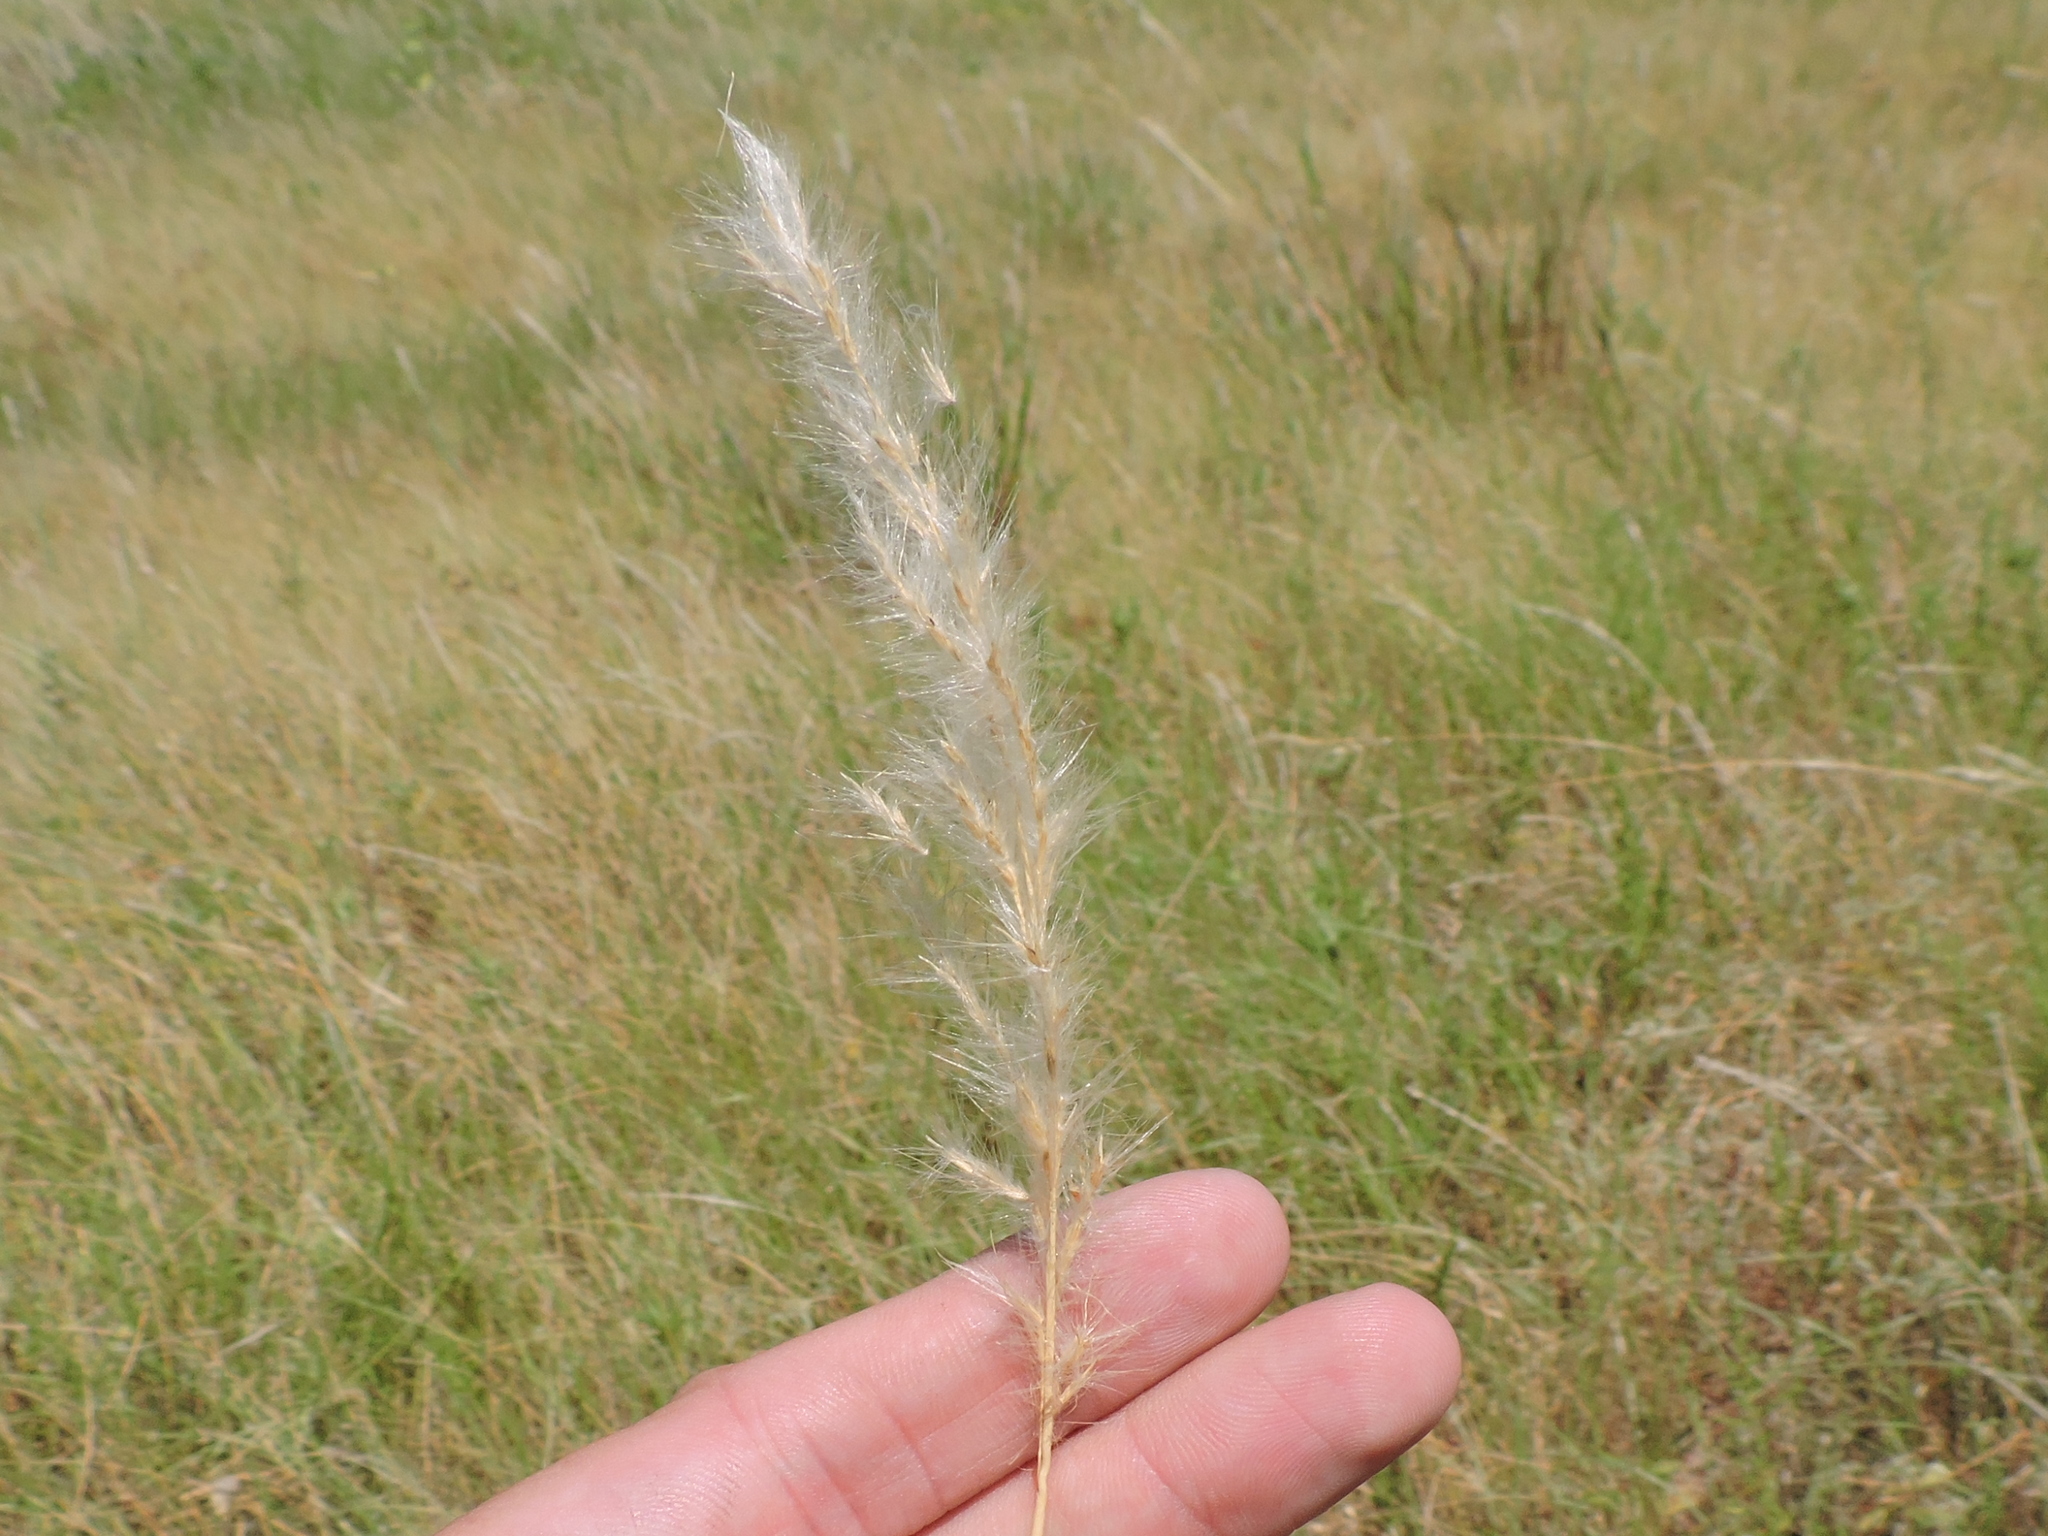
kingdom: Plantae
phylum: Tracheophyta
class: Liliopsida
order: Poales
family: Poaceae
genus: Bothriochloa
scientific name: Bothriochloa torreyana
